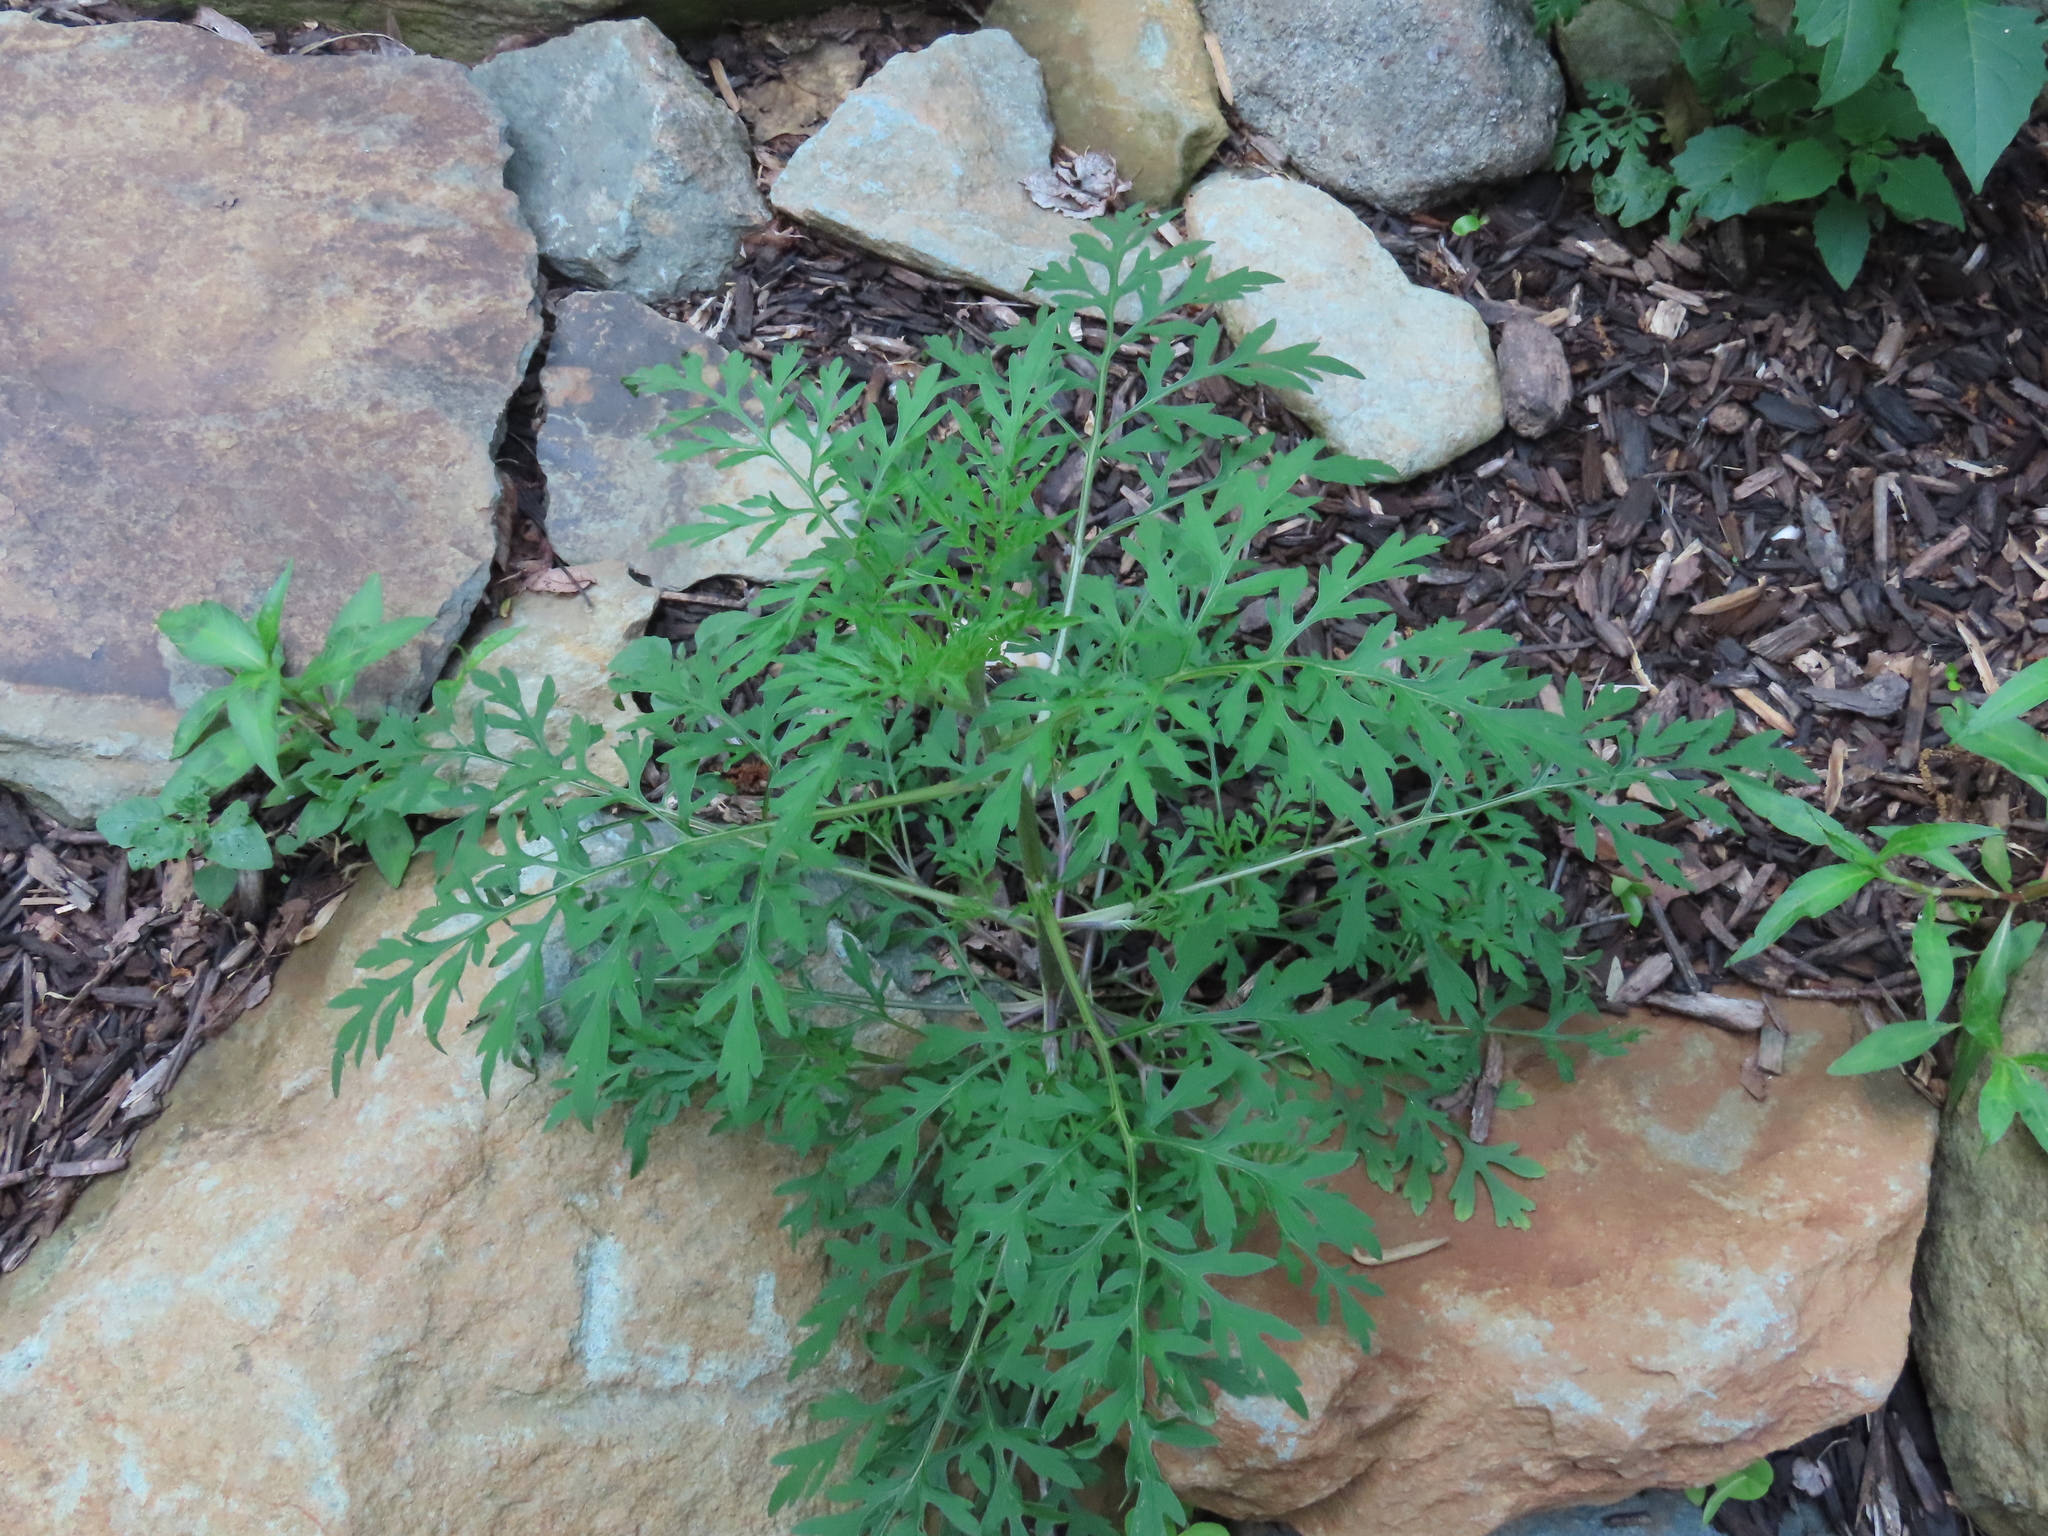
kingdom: Plantae
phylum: Tracheophyta
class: Magnoliopsida
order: Asterales
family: Asteraceae
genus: Ambrosia
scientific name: Ambrosia artemisiifolia
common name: Annual ragweed
